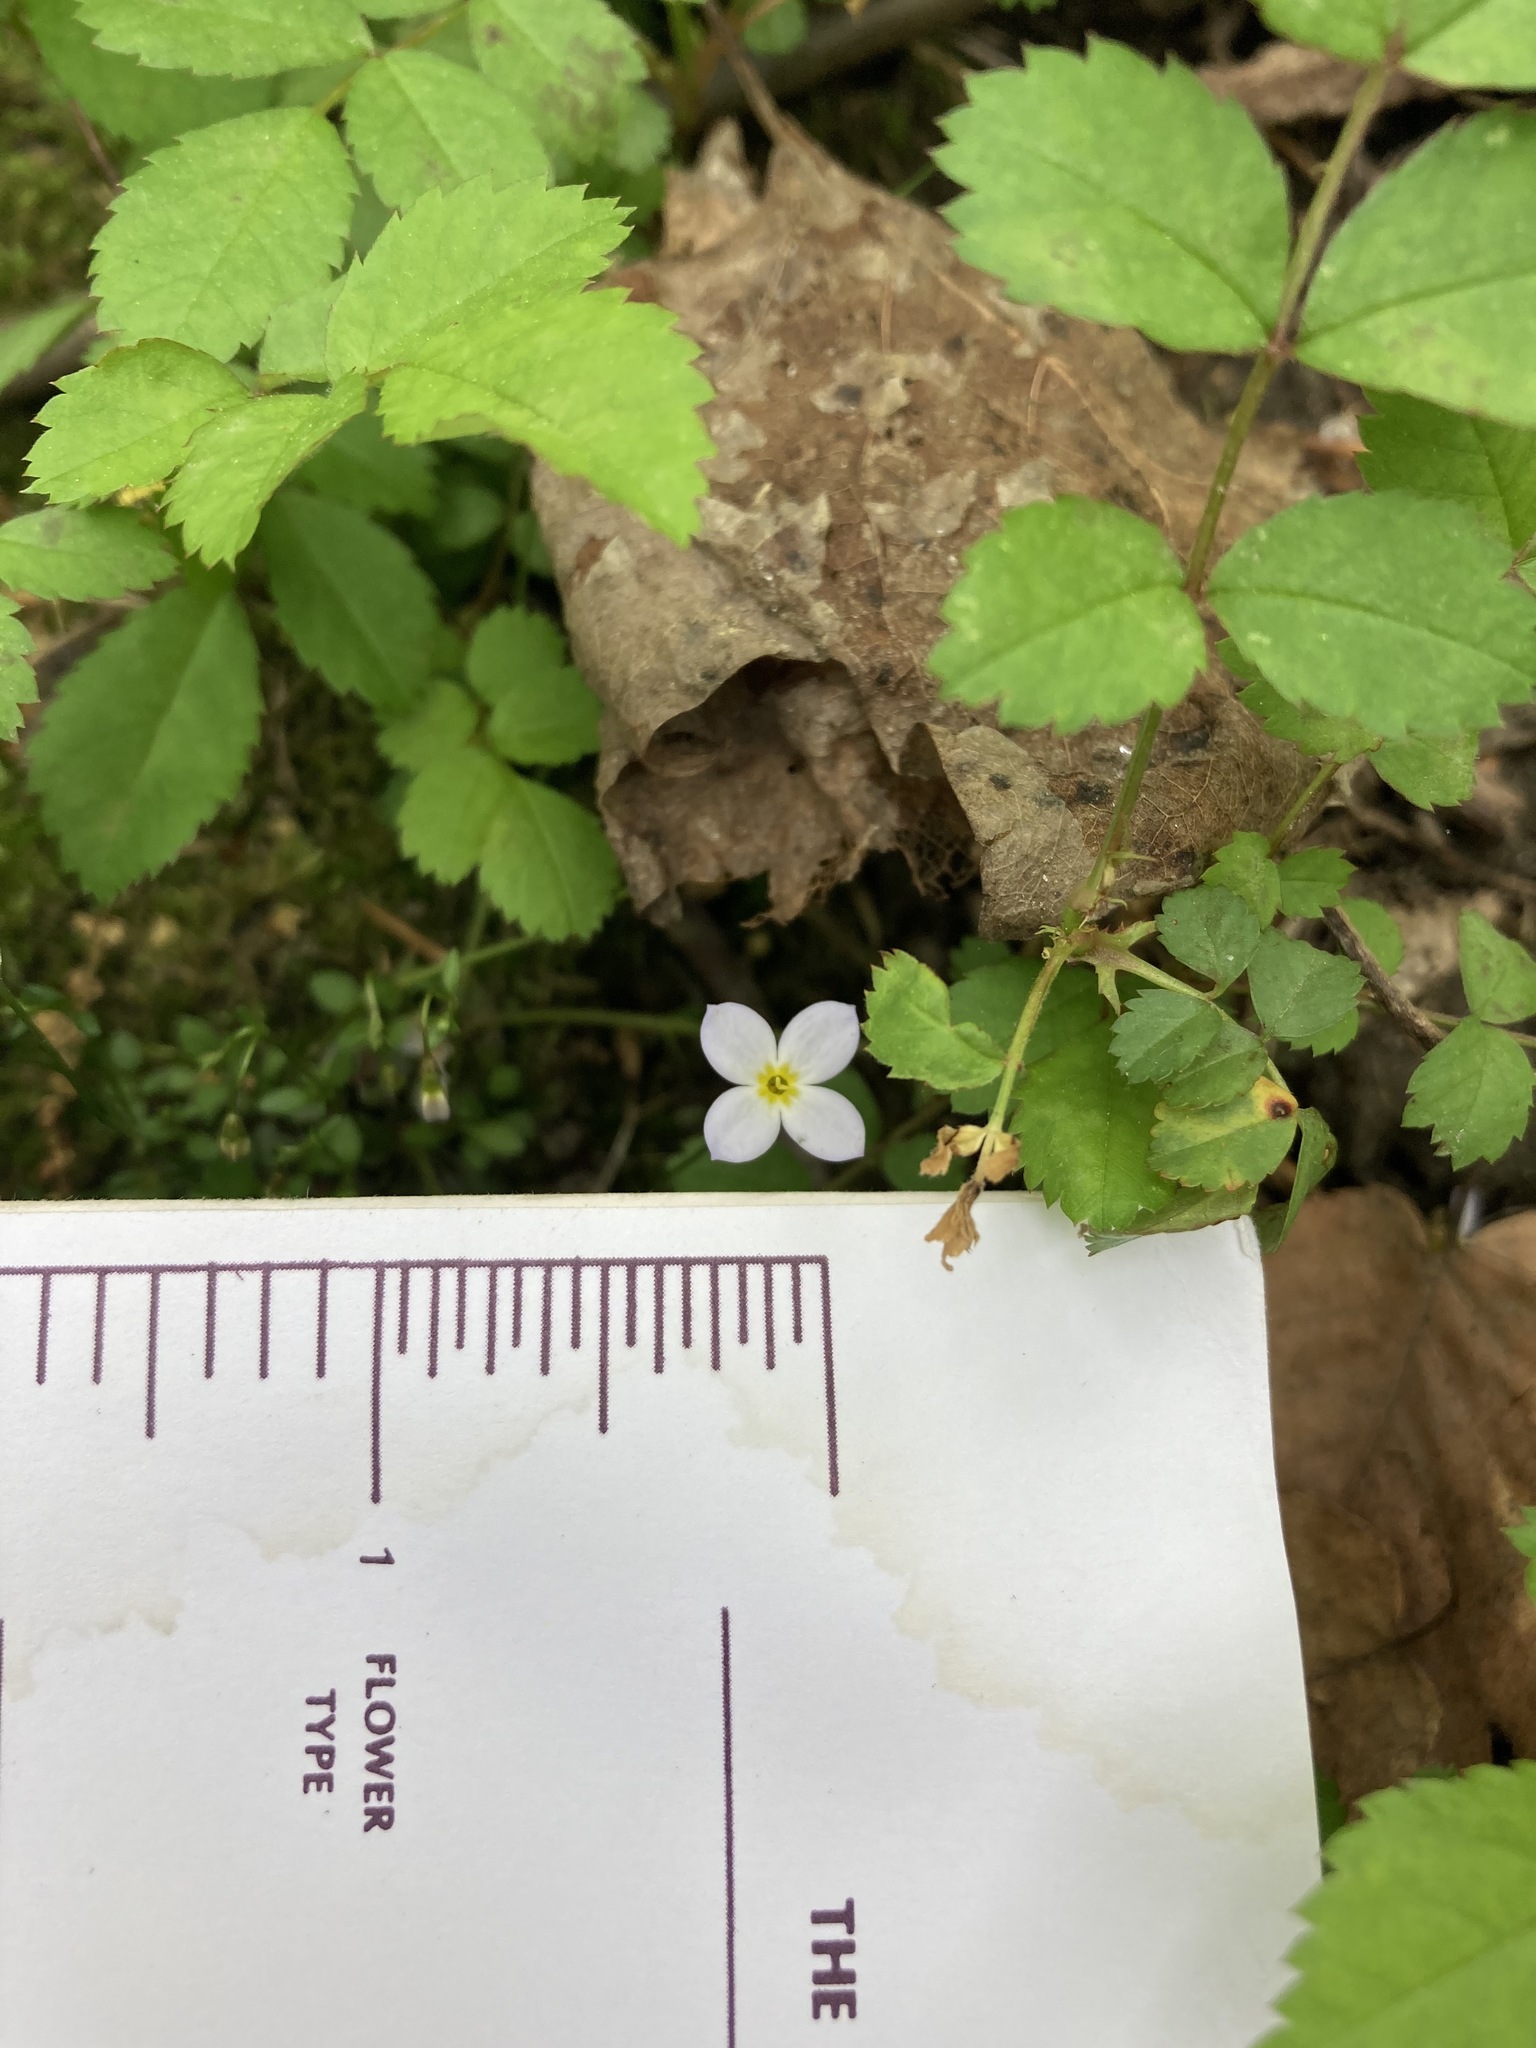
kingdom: Plantae
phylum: Tracheophyta
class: Magnoliopsida
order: Gentianales
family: Rubiaceae
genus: Houstonia
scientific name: Houstonia caerulea
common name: Bluets
